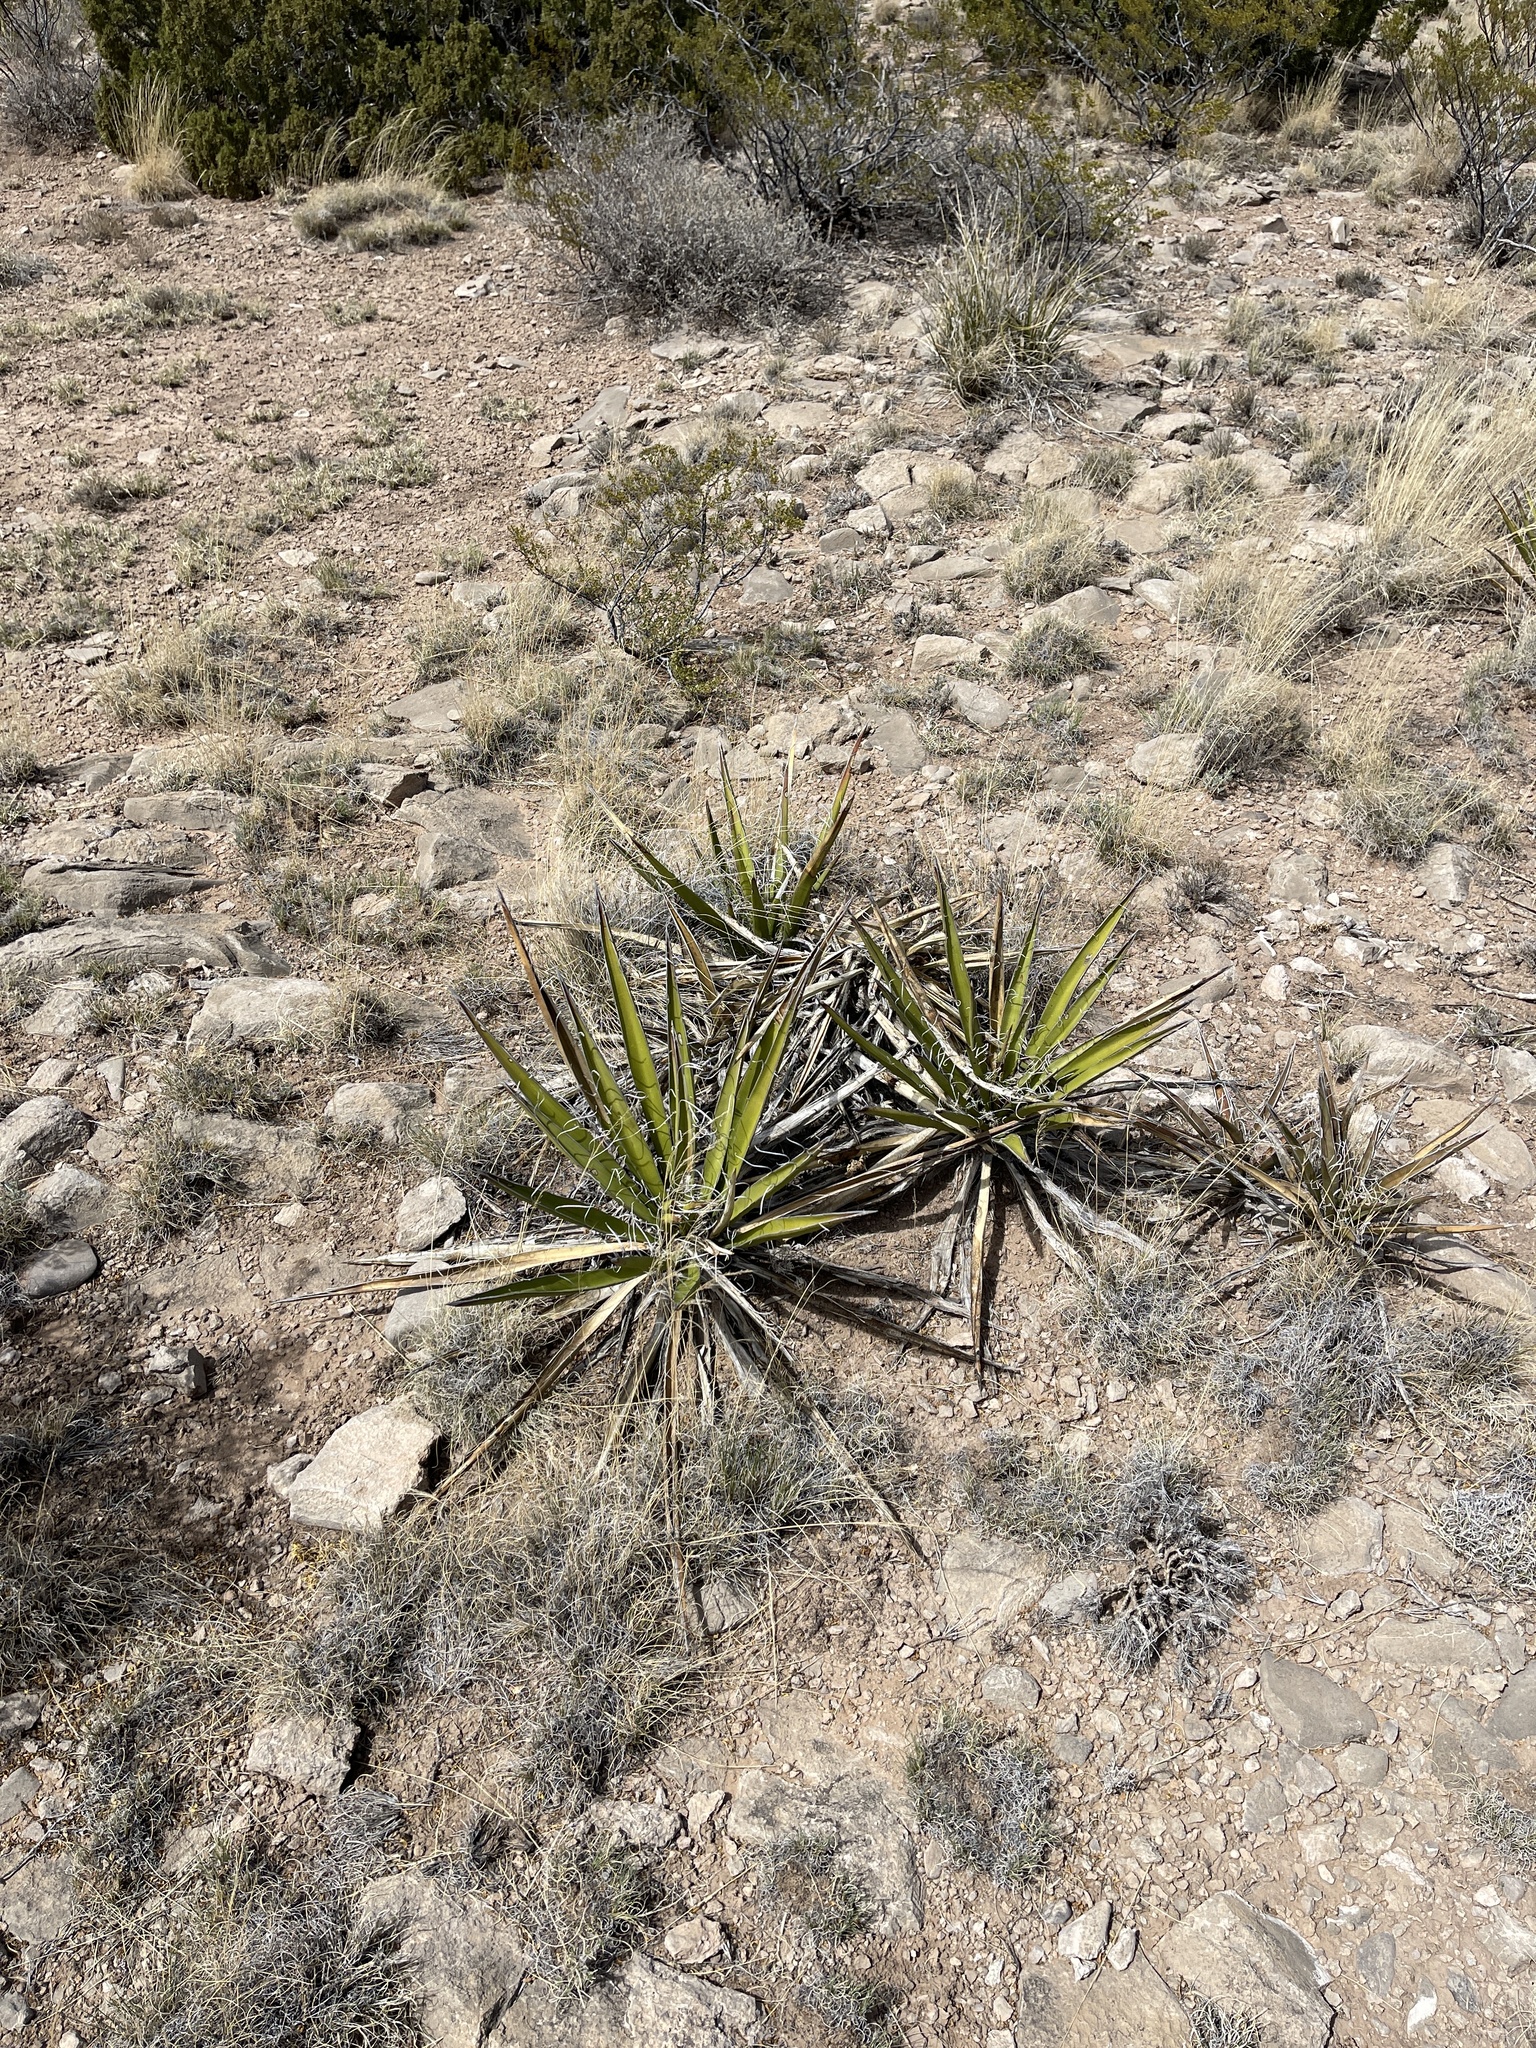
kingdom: Plantae
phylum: Tracheophyta
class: Liliopsida
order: Asparagales
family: Asparagaceae
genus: Yucca
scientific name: Yucca baccata
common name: Banana yucca
